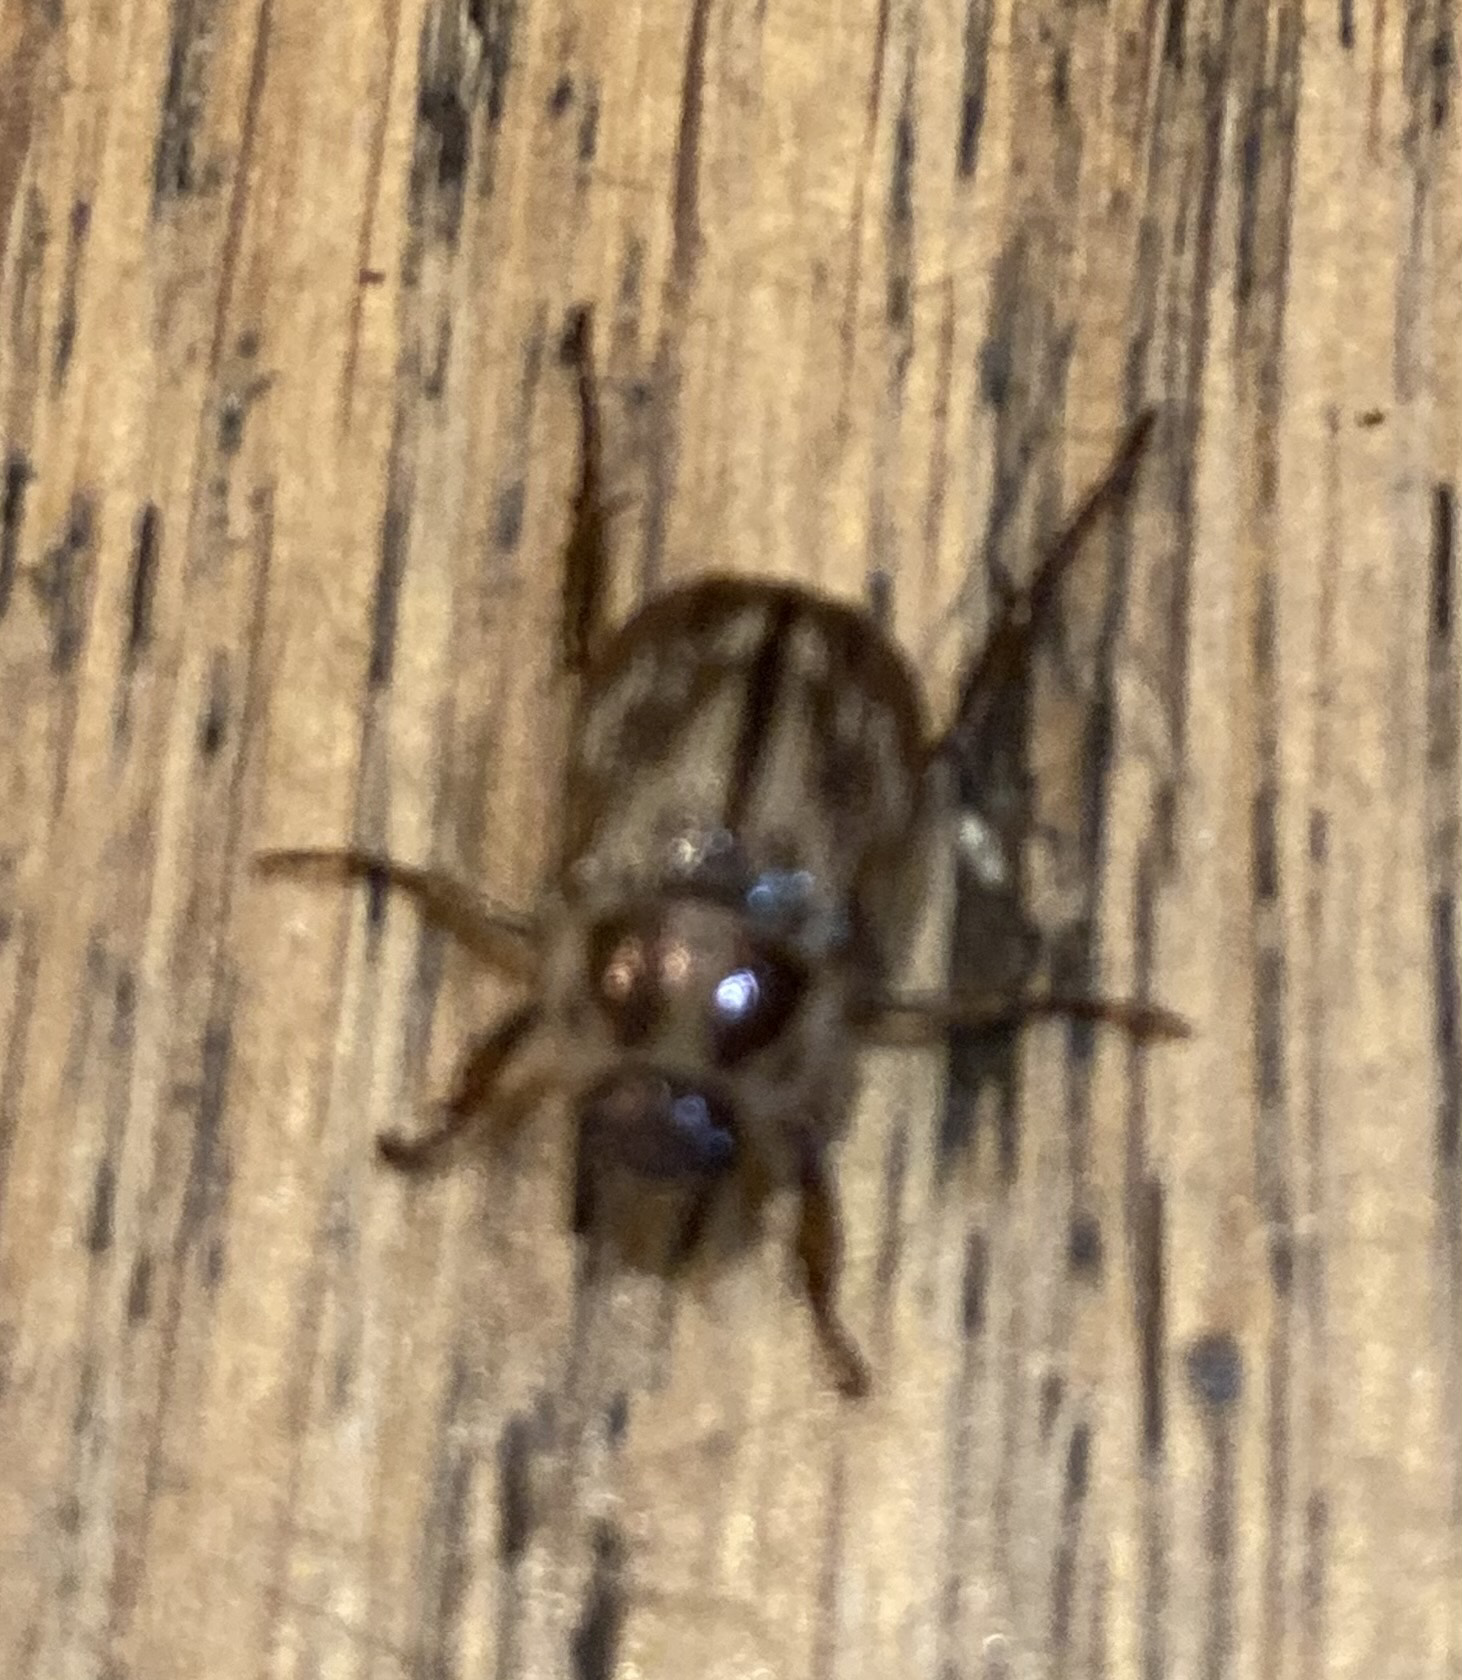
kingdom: Animalia
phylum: Arthropoda
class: Insecta
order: Coleoptera
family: Scarabaeidae
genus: Exomala
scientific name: Exomala orientalis
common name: Oriental beetle
